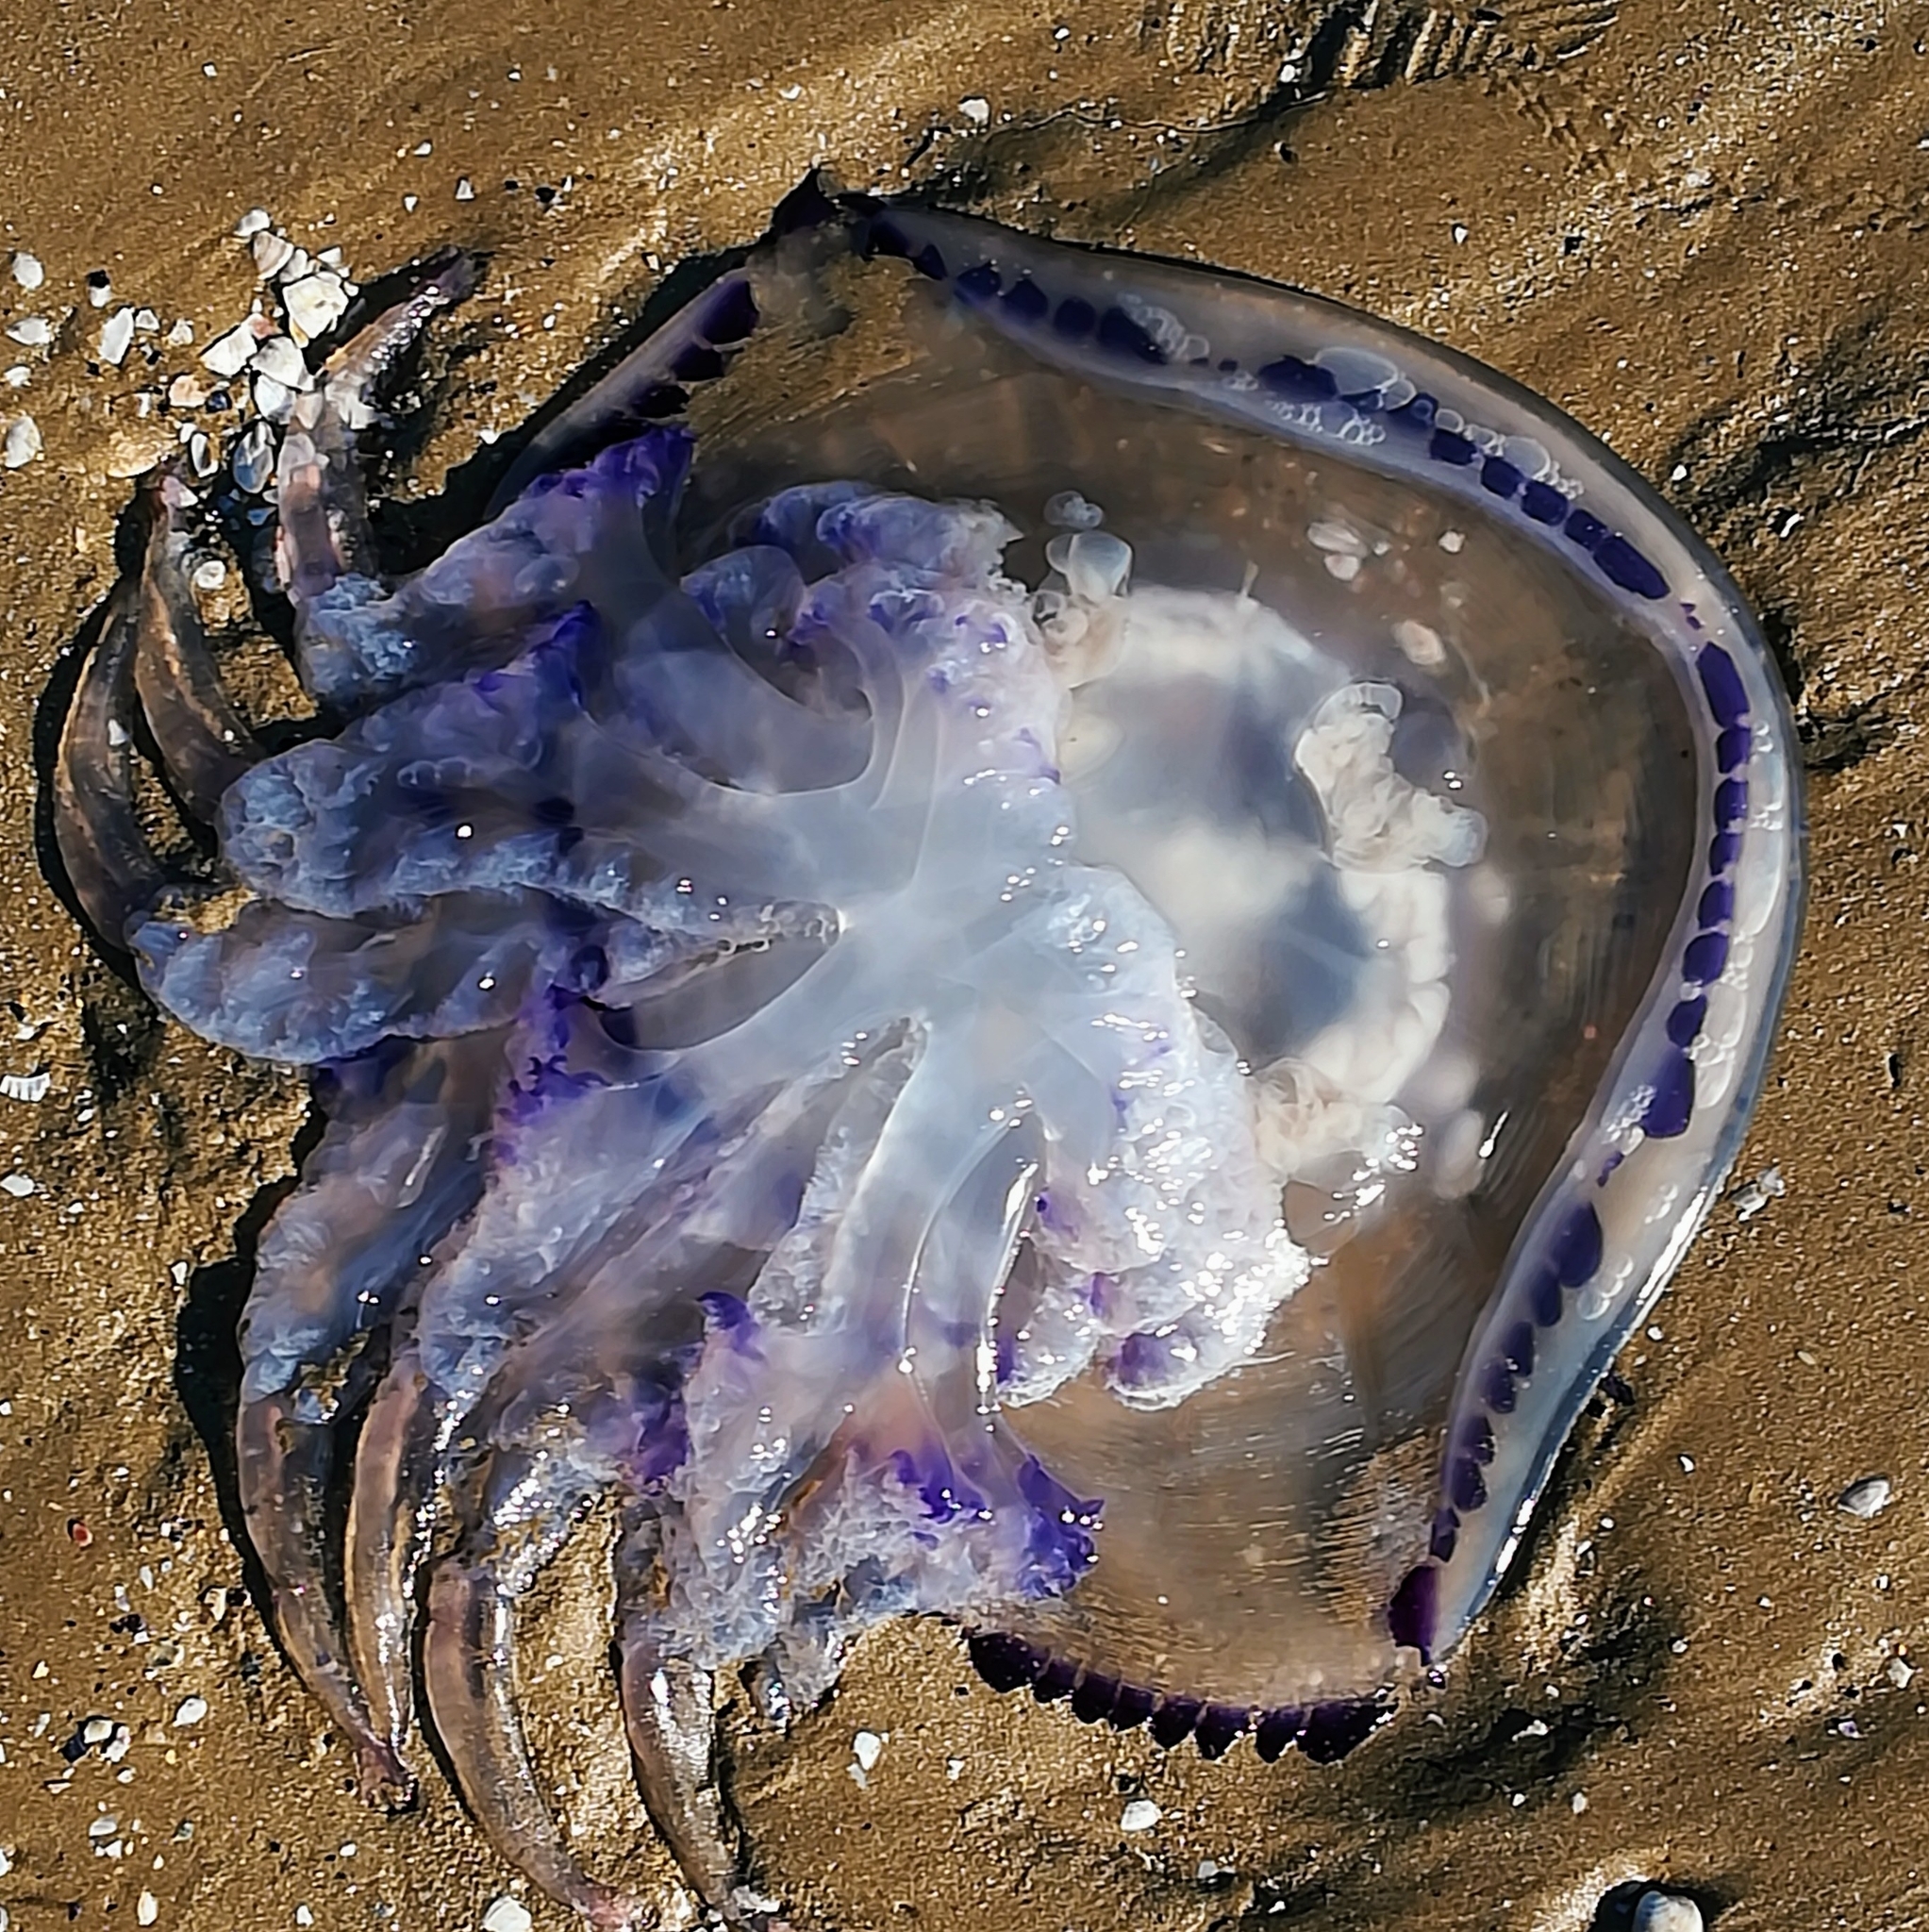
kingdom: Animalia
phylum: Cnidaria
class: Scyphozoa
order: Rhizostomeae
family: Rhizostomatidae
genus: Rhizostoma
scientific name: Rhizostoma pulmo
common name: Barrel jellyfish
